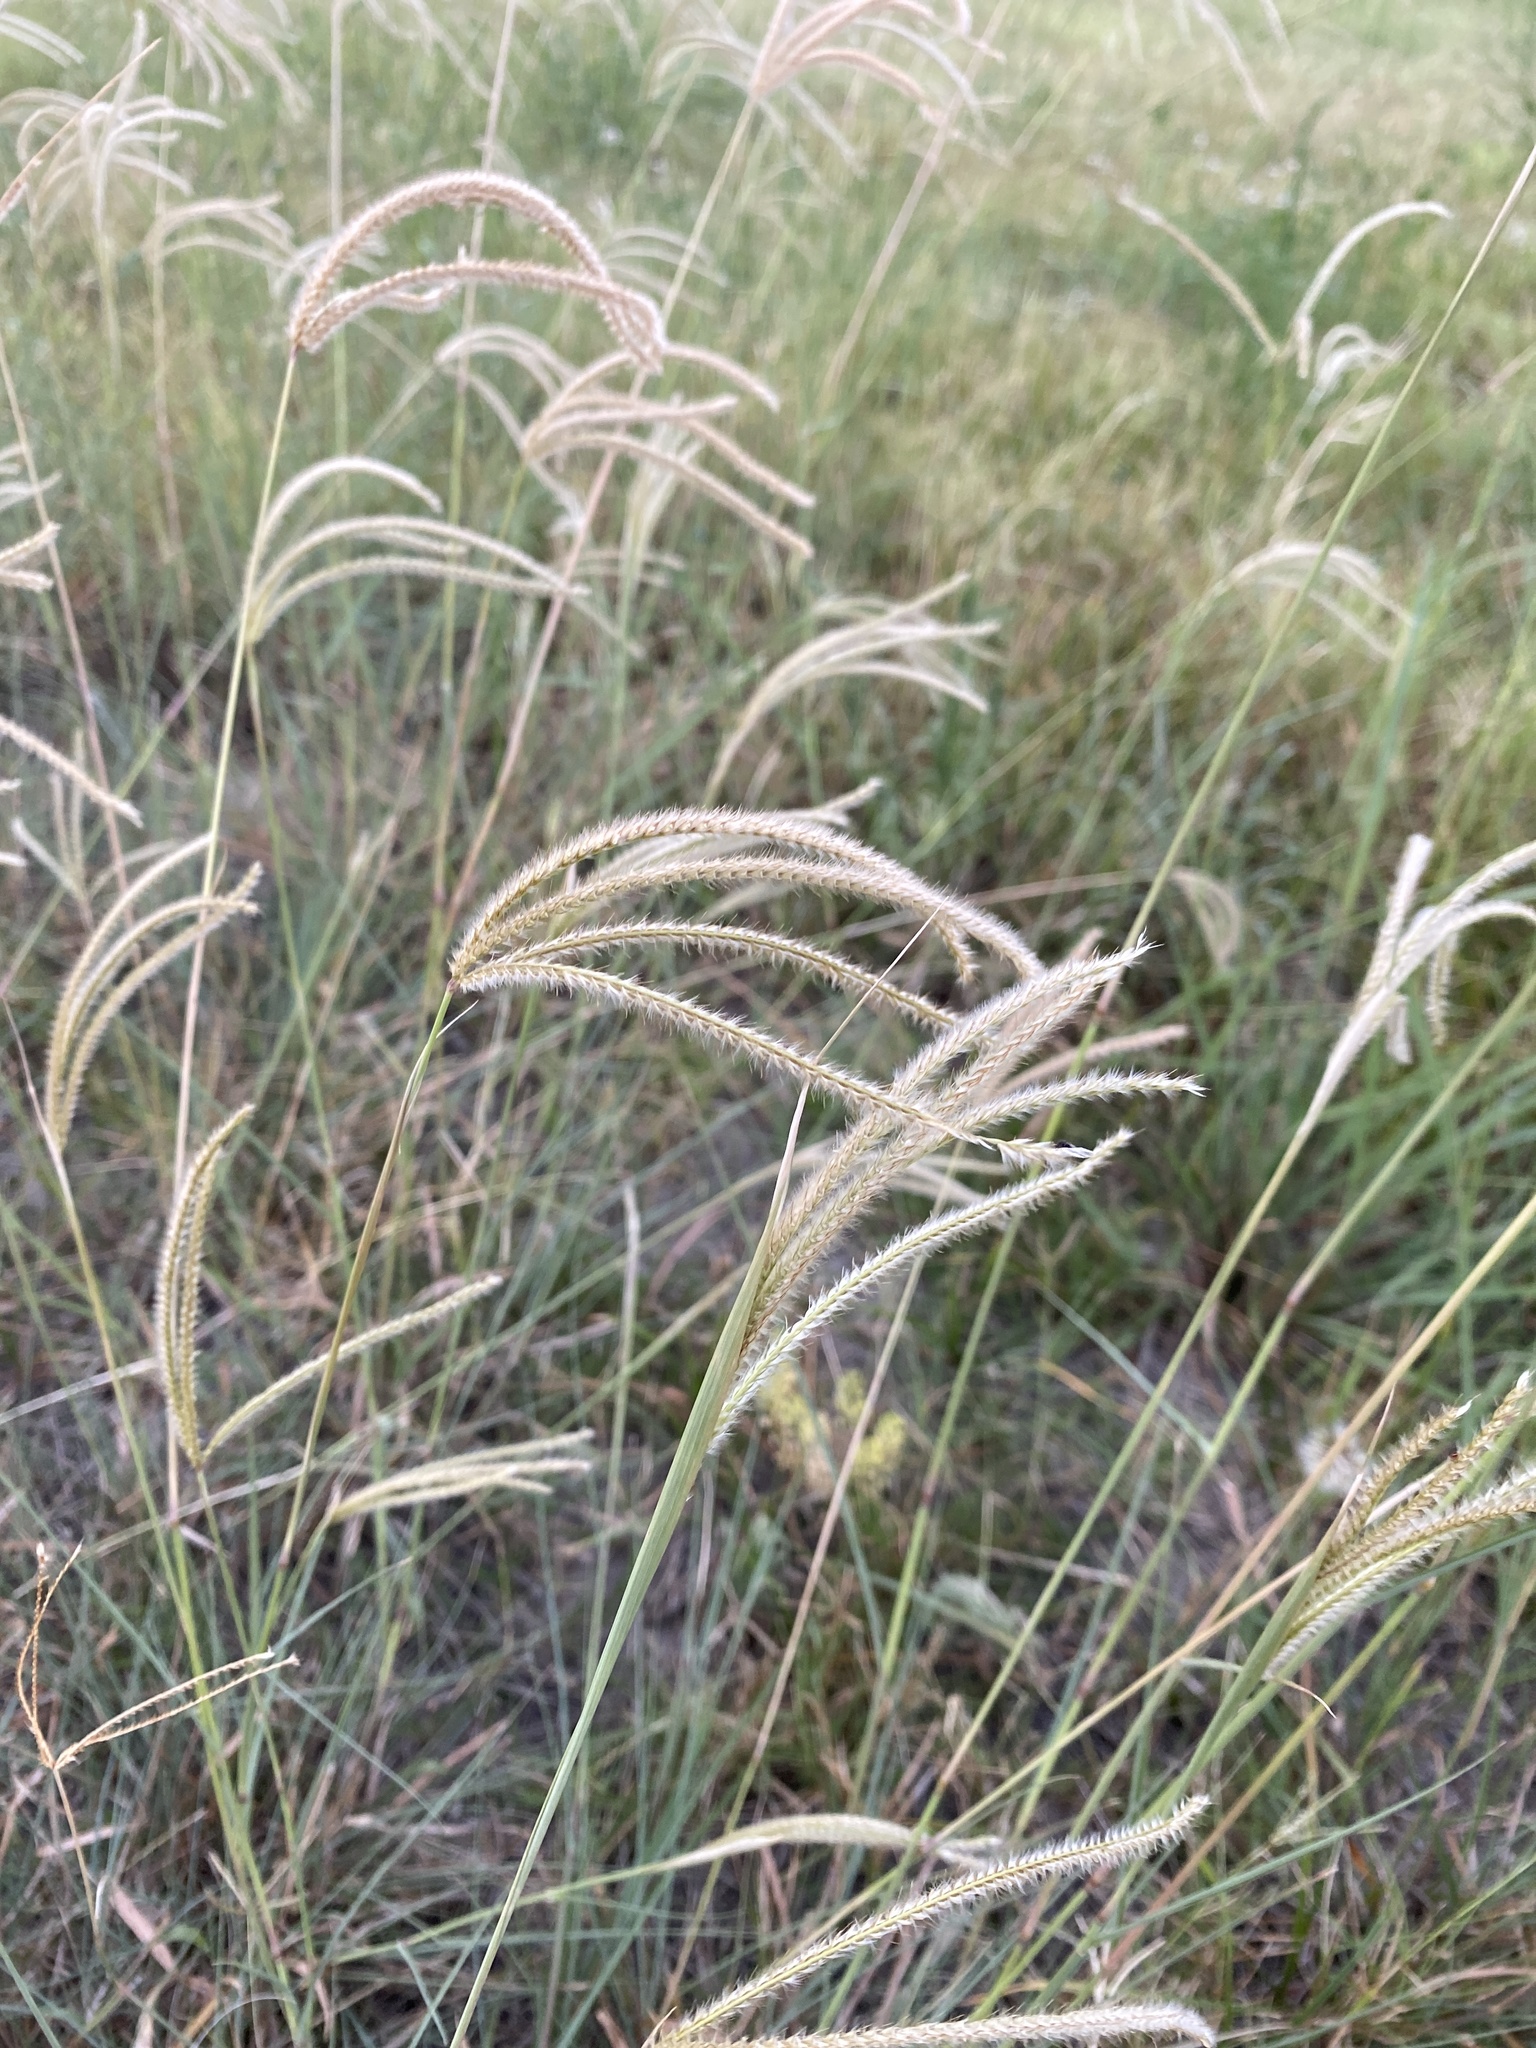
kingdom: Plantae
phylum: Tracheophyta
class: Liliopsida
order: Poales
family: Poaceae
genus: Stapfochloa
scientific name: Stapfochloa canterae
